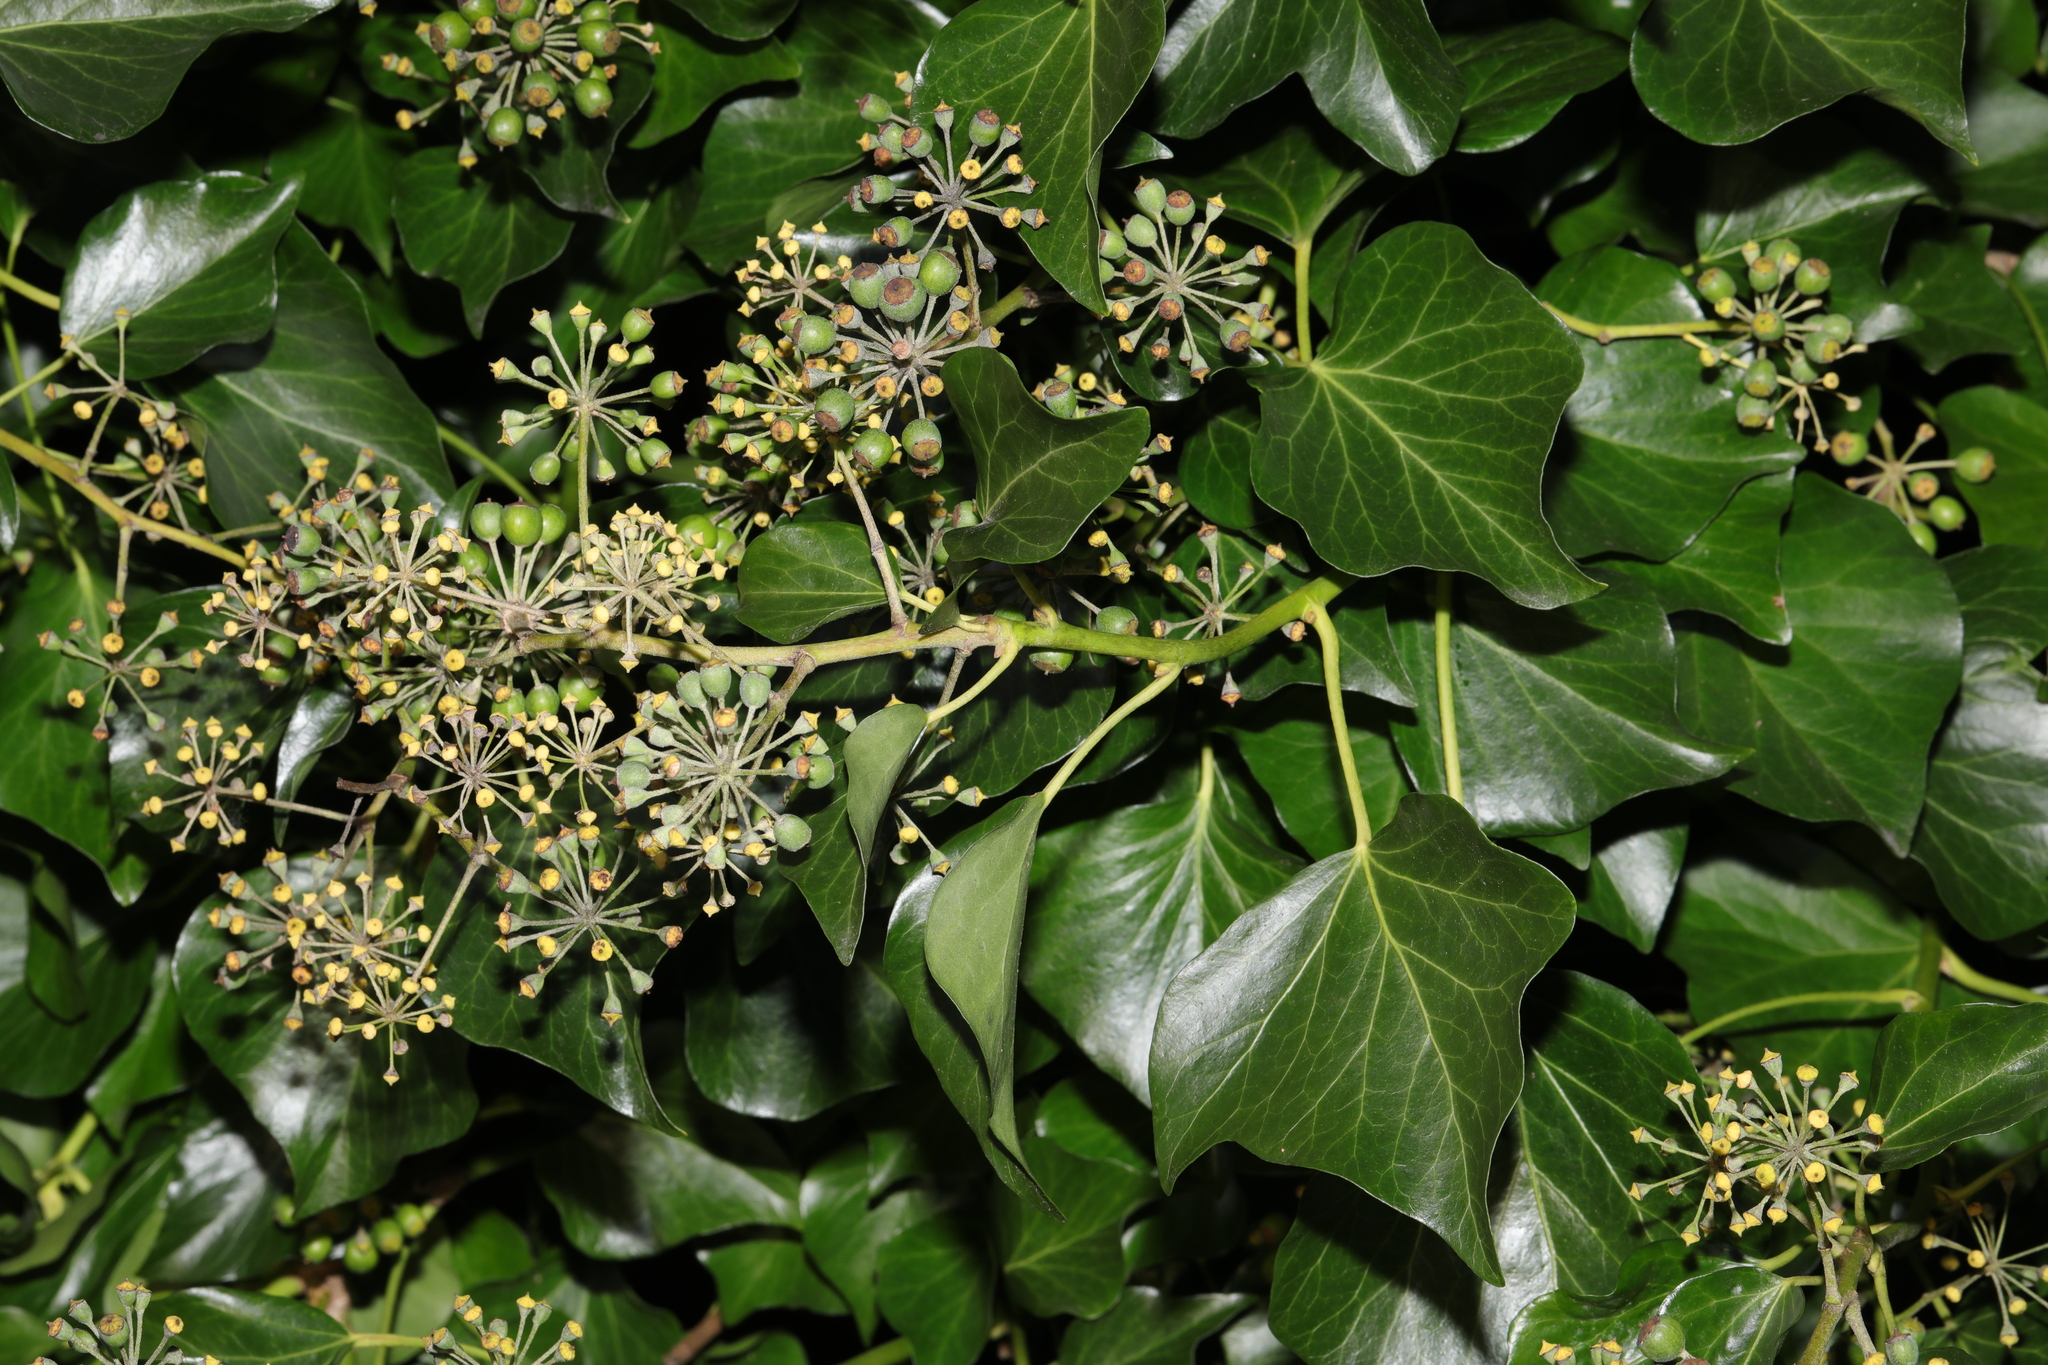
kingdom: Plantae
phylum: Tracheophyta
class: Magnoliopsida
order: Apiales
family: Araliaceae
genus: Hedera
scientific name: Hedera helix
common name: Ivy
